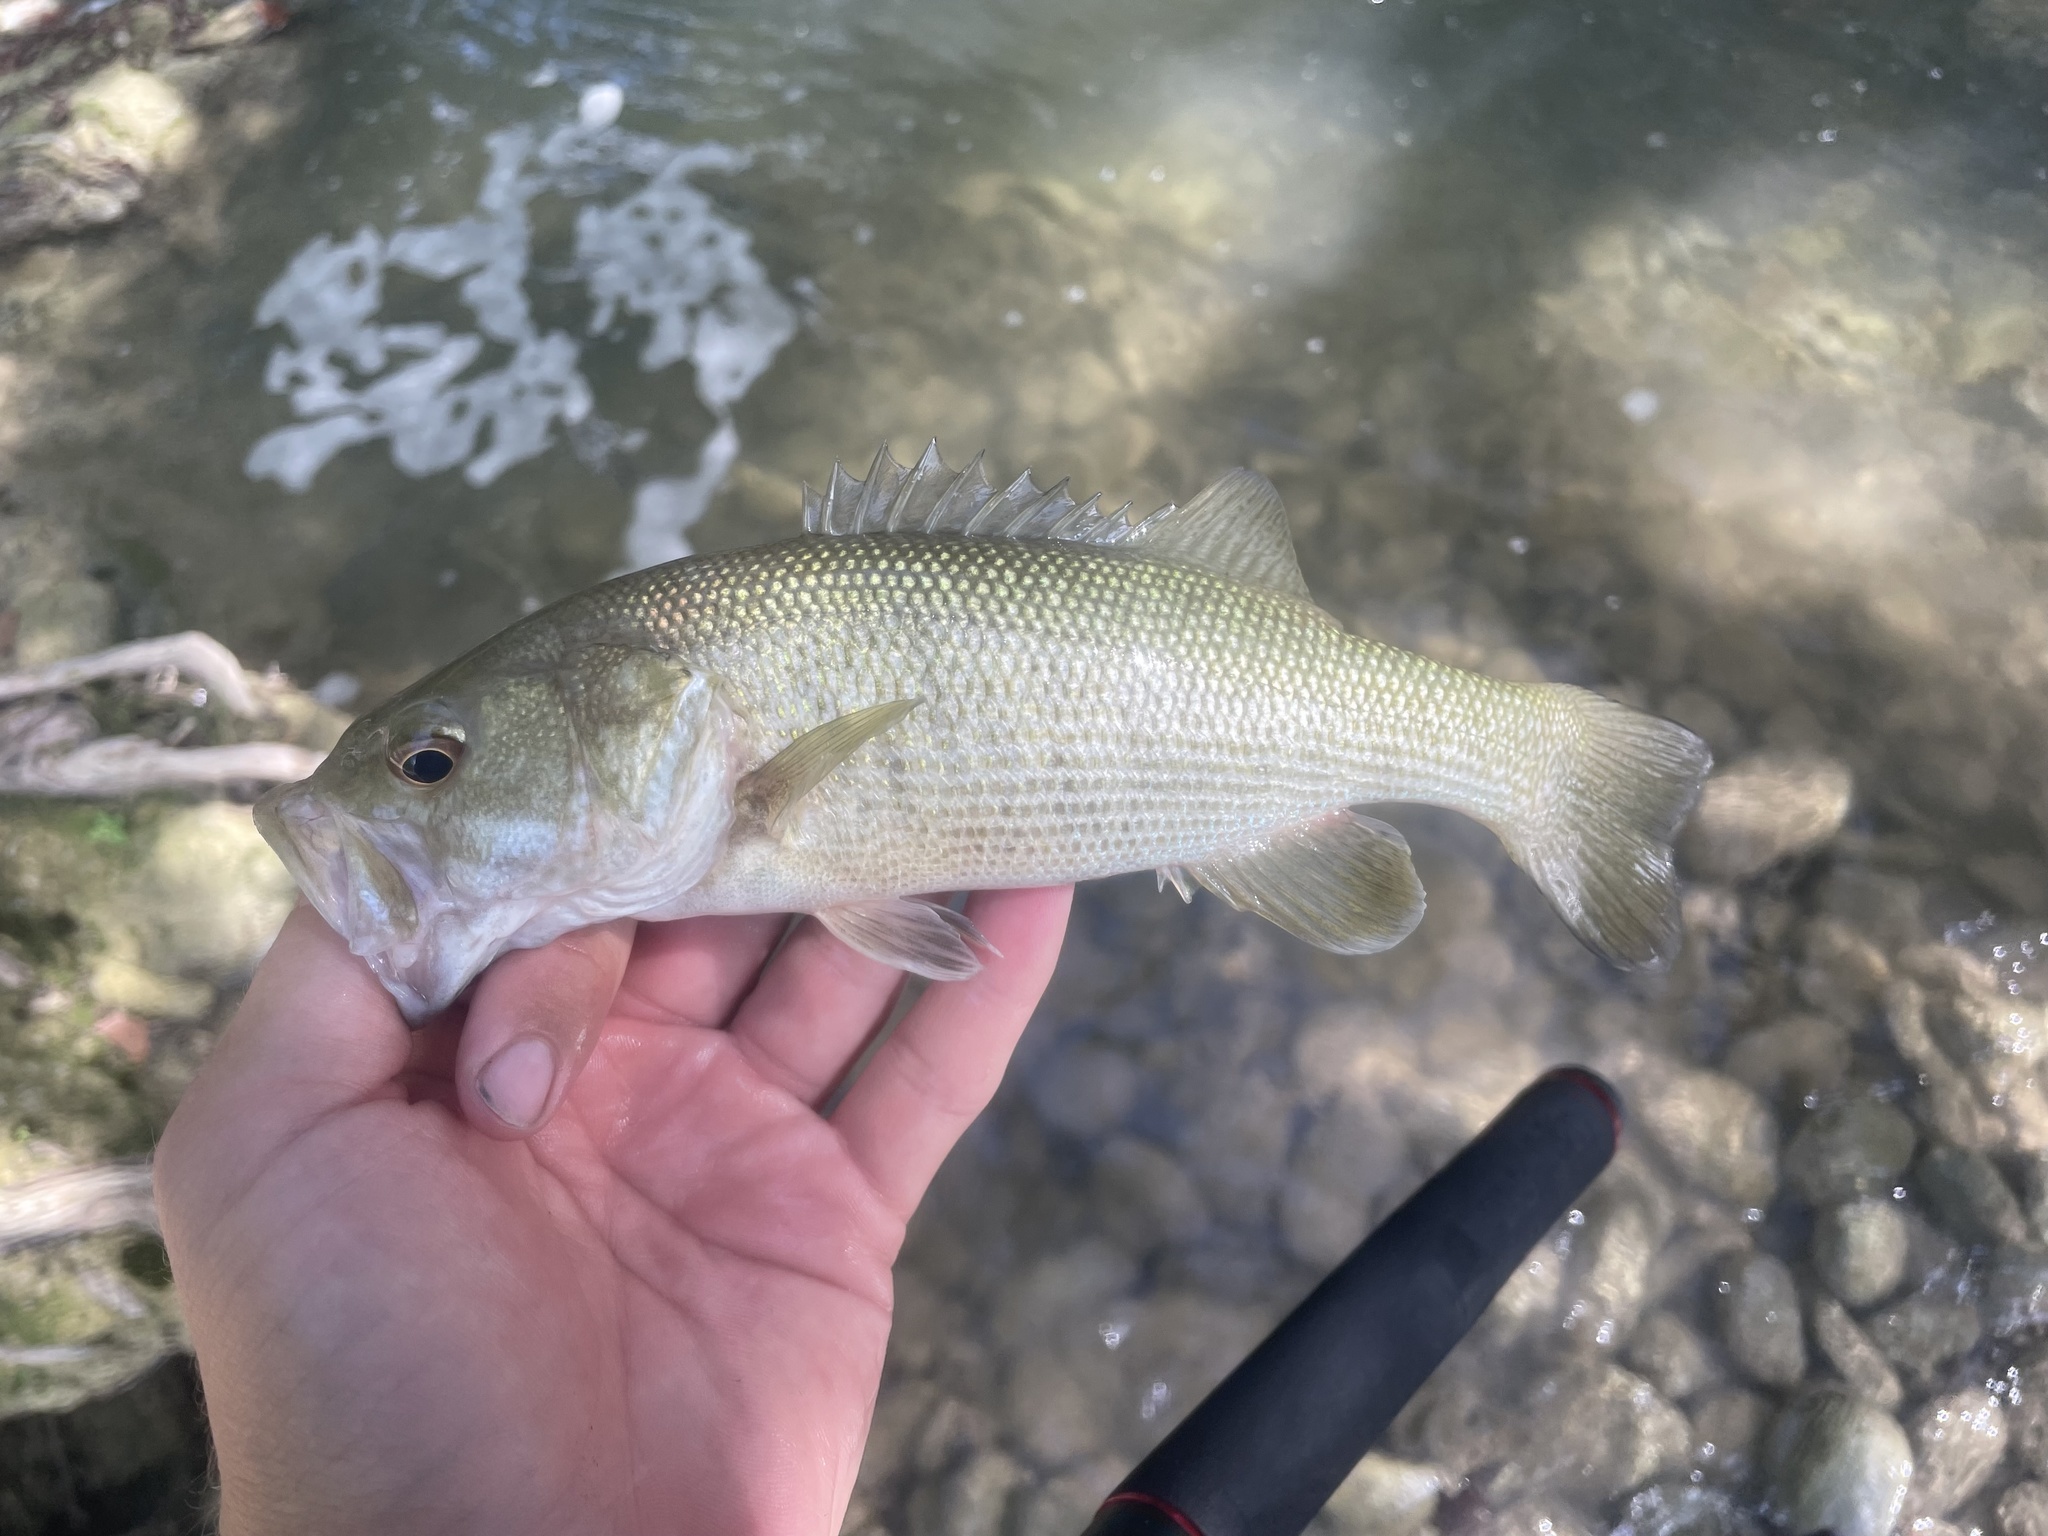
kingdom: Animalia
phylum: Chordata
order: Perciformes
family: Centrarchidae
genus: Micropterus
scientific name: Micropterus treculii
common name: Guadalupe bass
